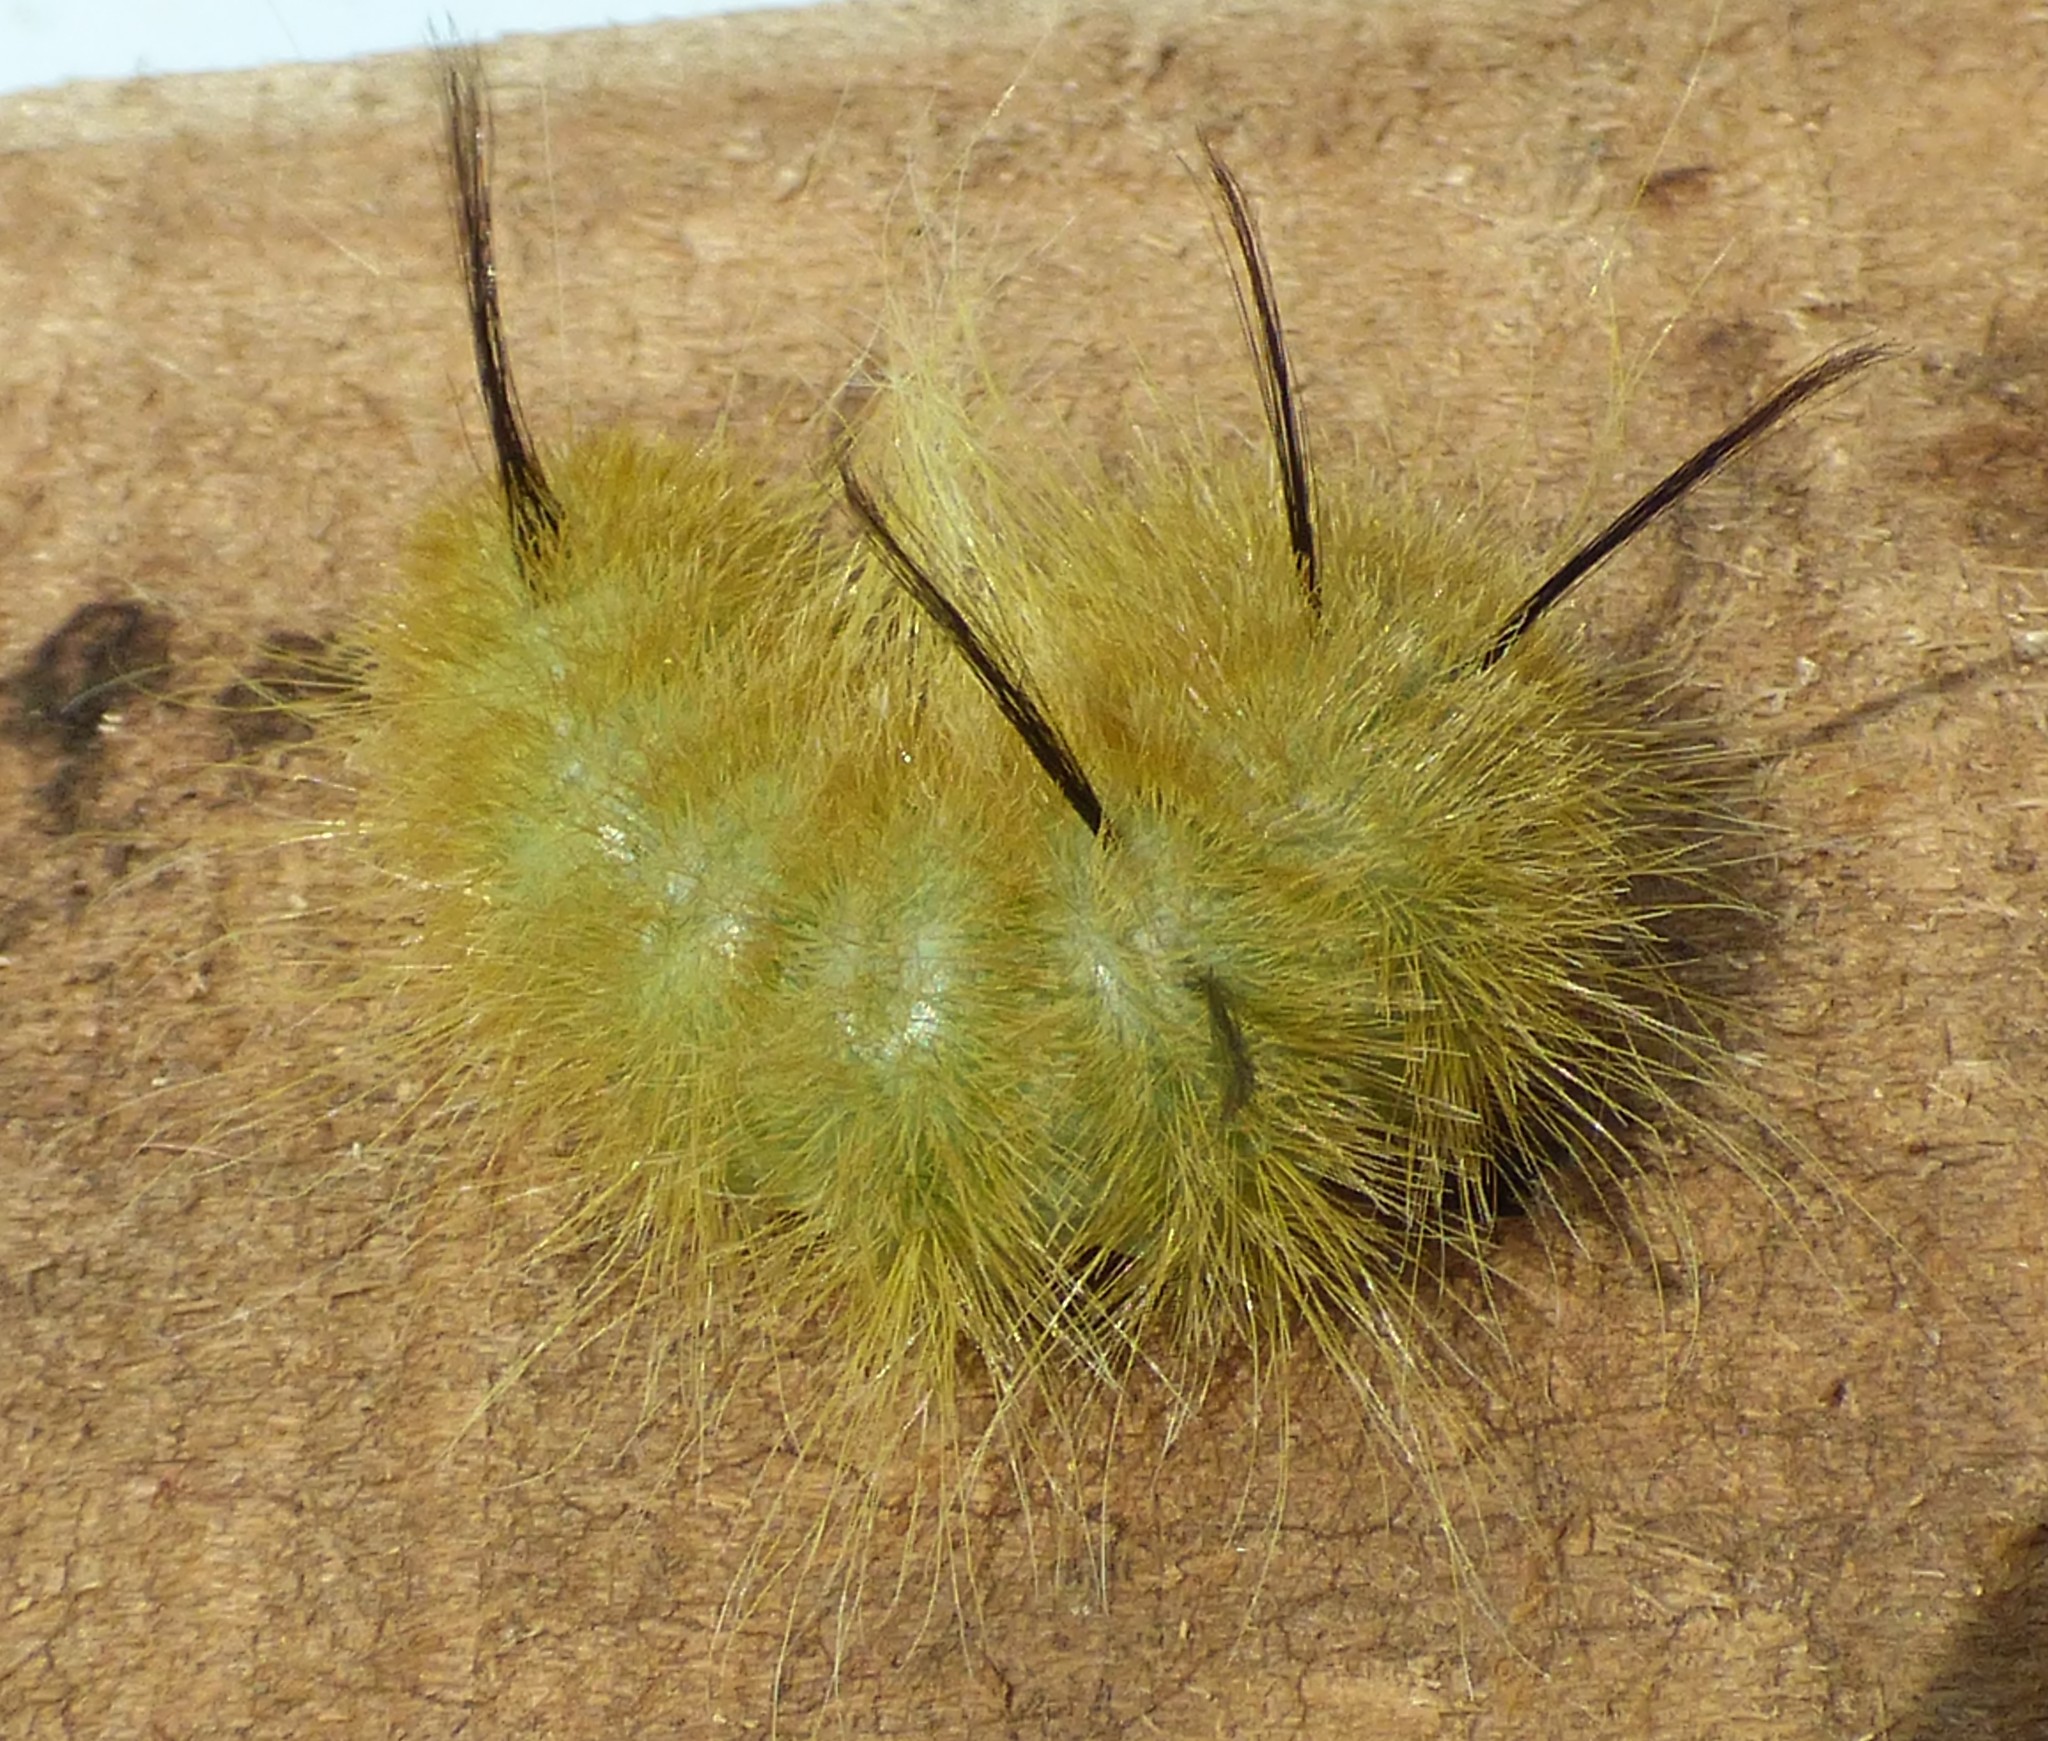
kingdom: Animalia
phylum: Arthropoda
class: Insecta
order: Lepidoptera
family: Noctuidae
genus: Acronicta
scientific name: Acronicta americana
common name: American dagger
